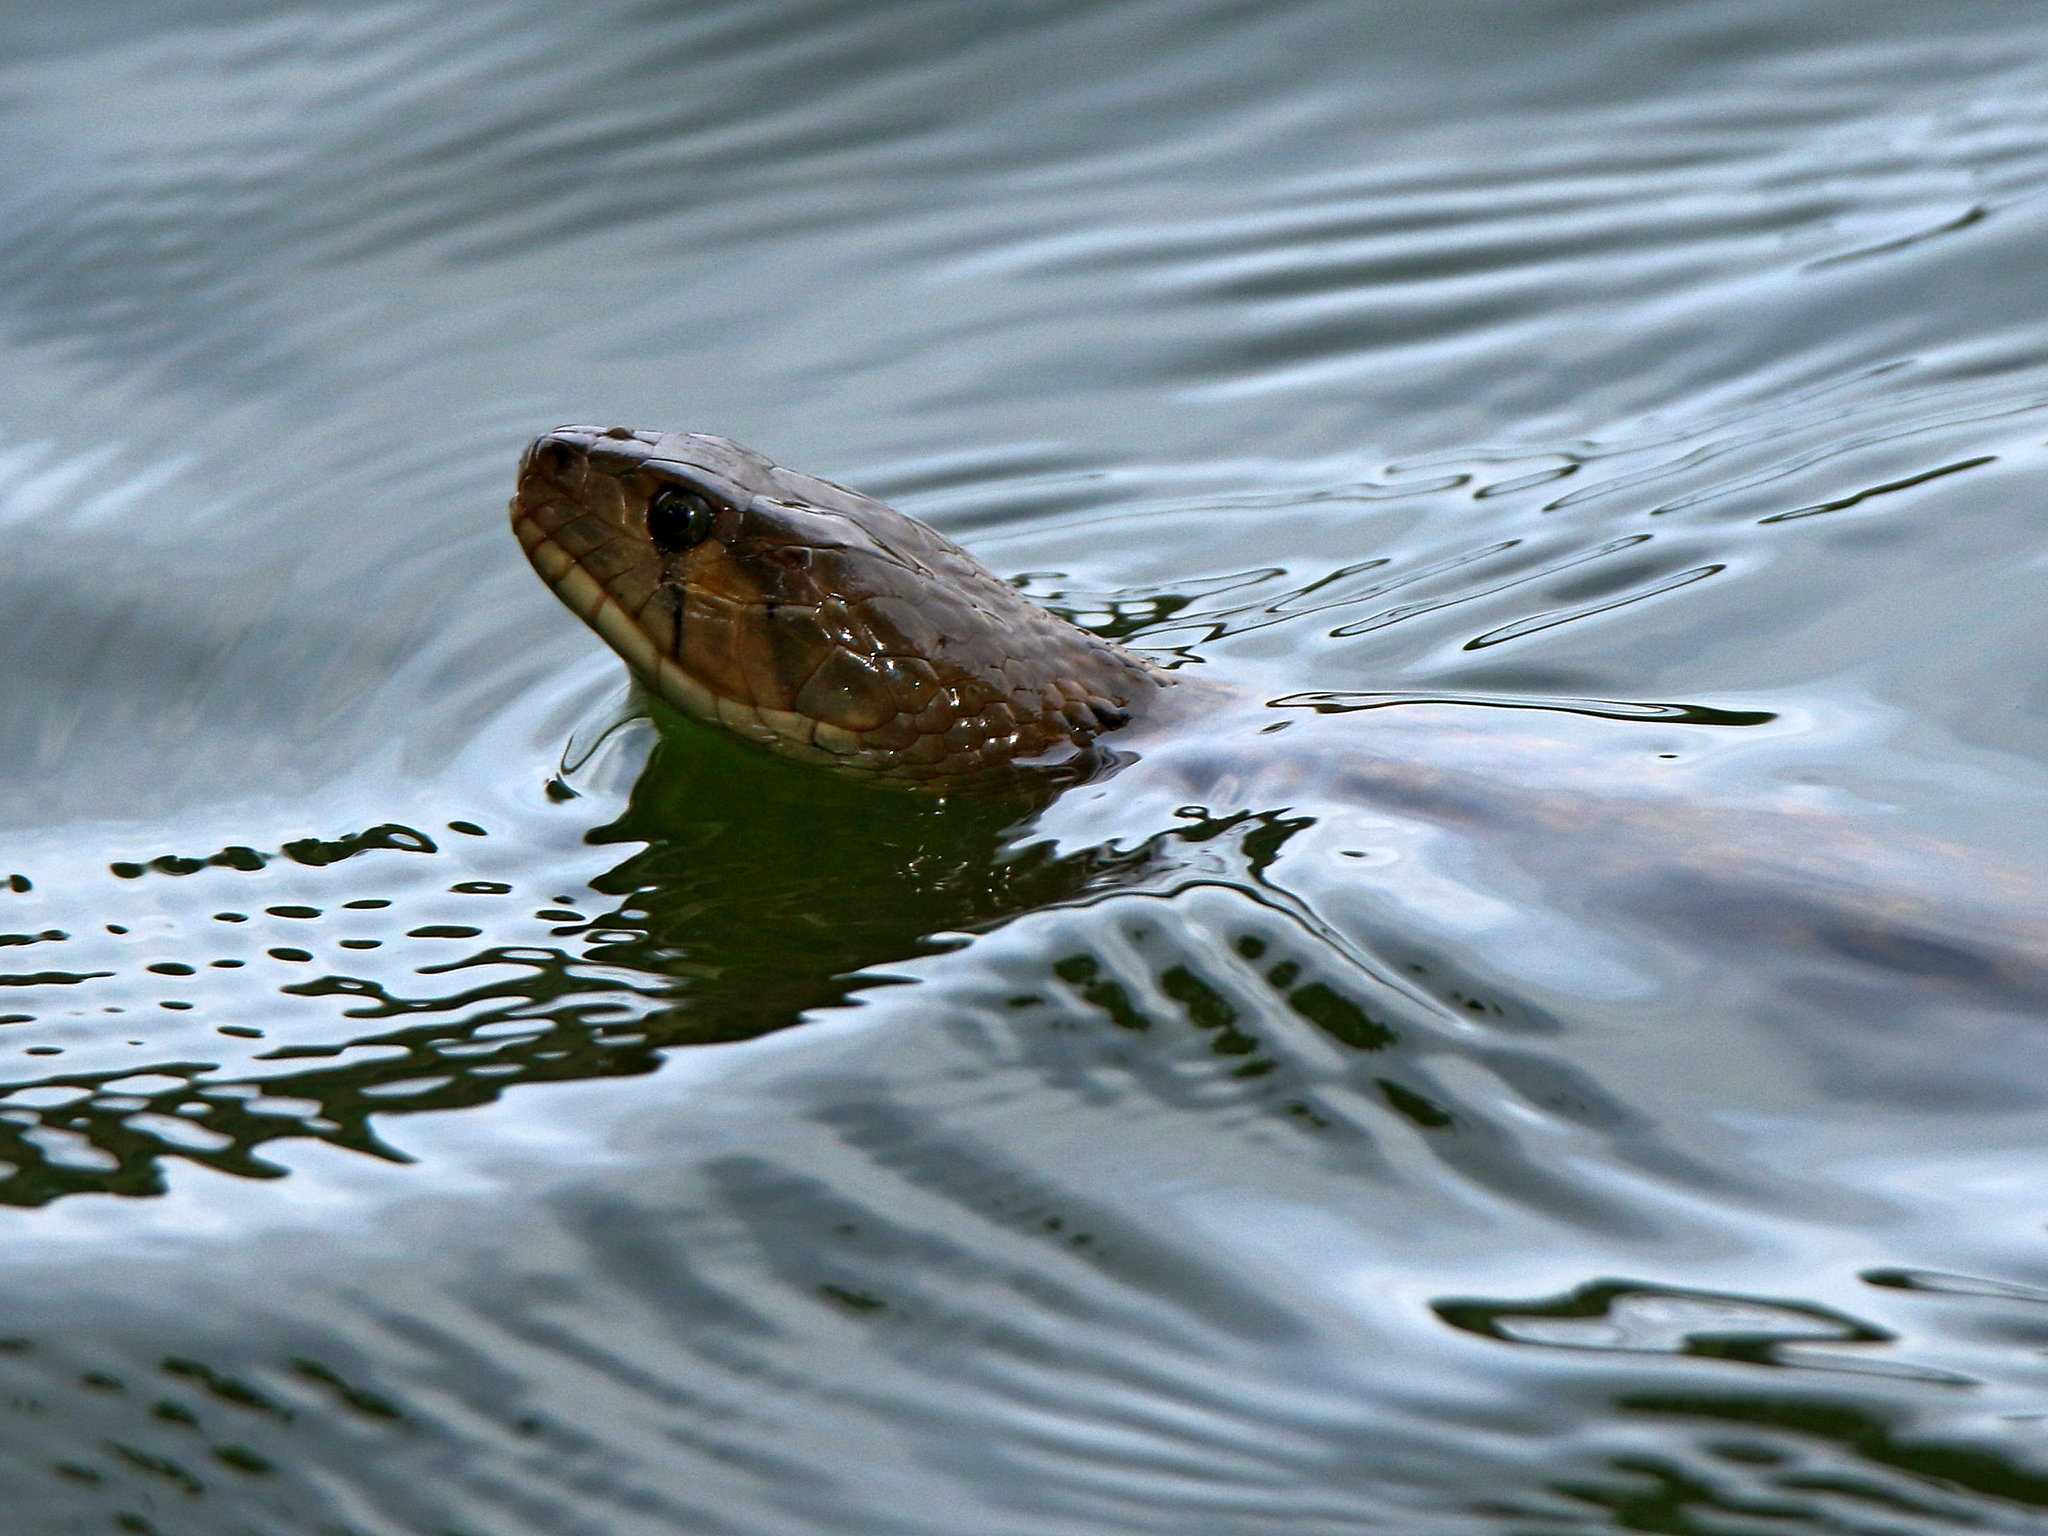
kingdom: Animalia
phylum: Chordata
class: Squamata
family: Colubridae
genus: Fowlea
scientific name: Fowlea piscator
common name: Asiatic water snake
